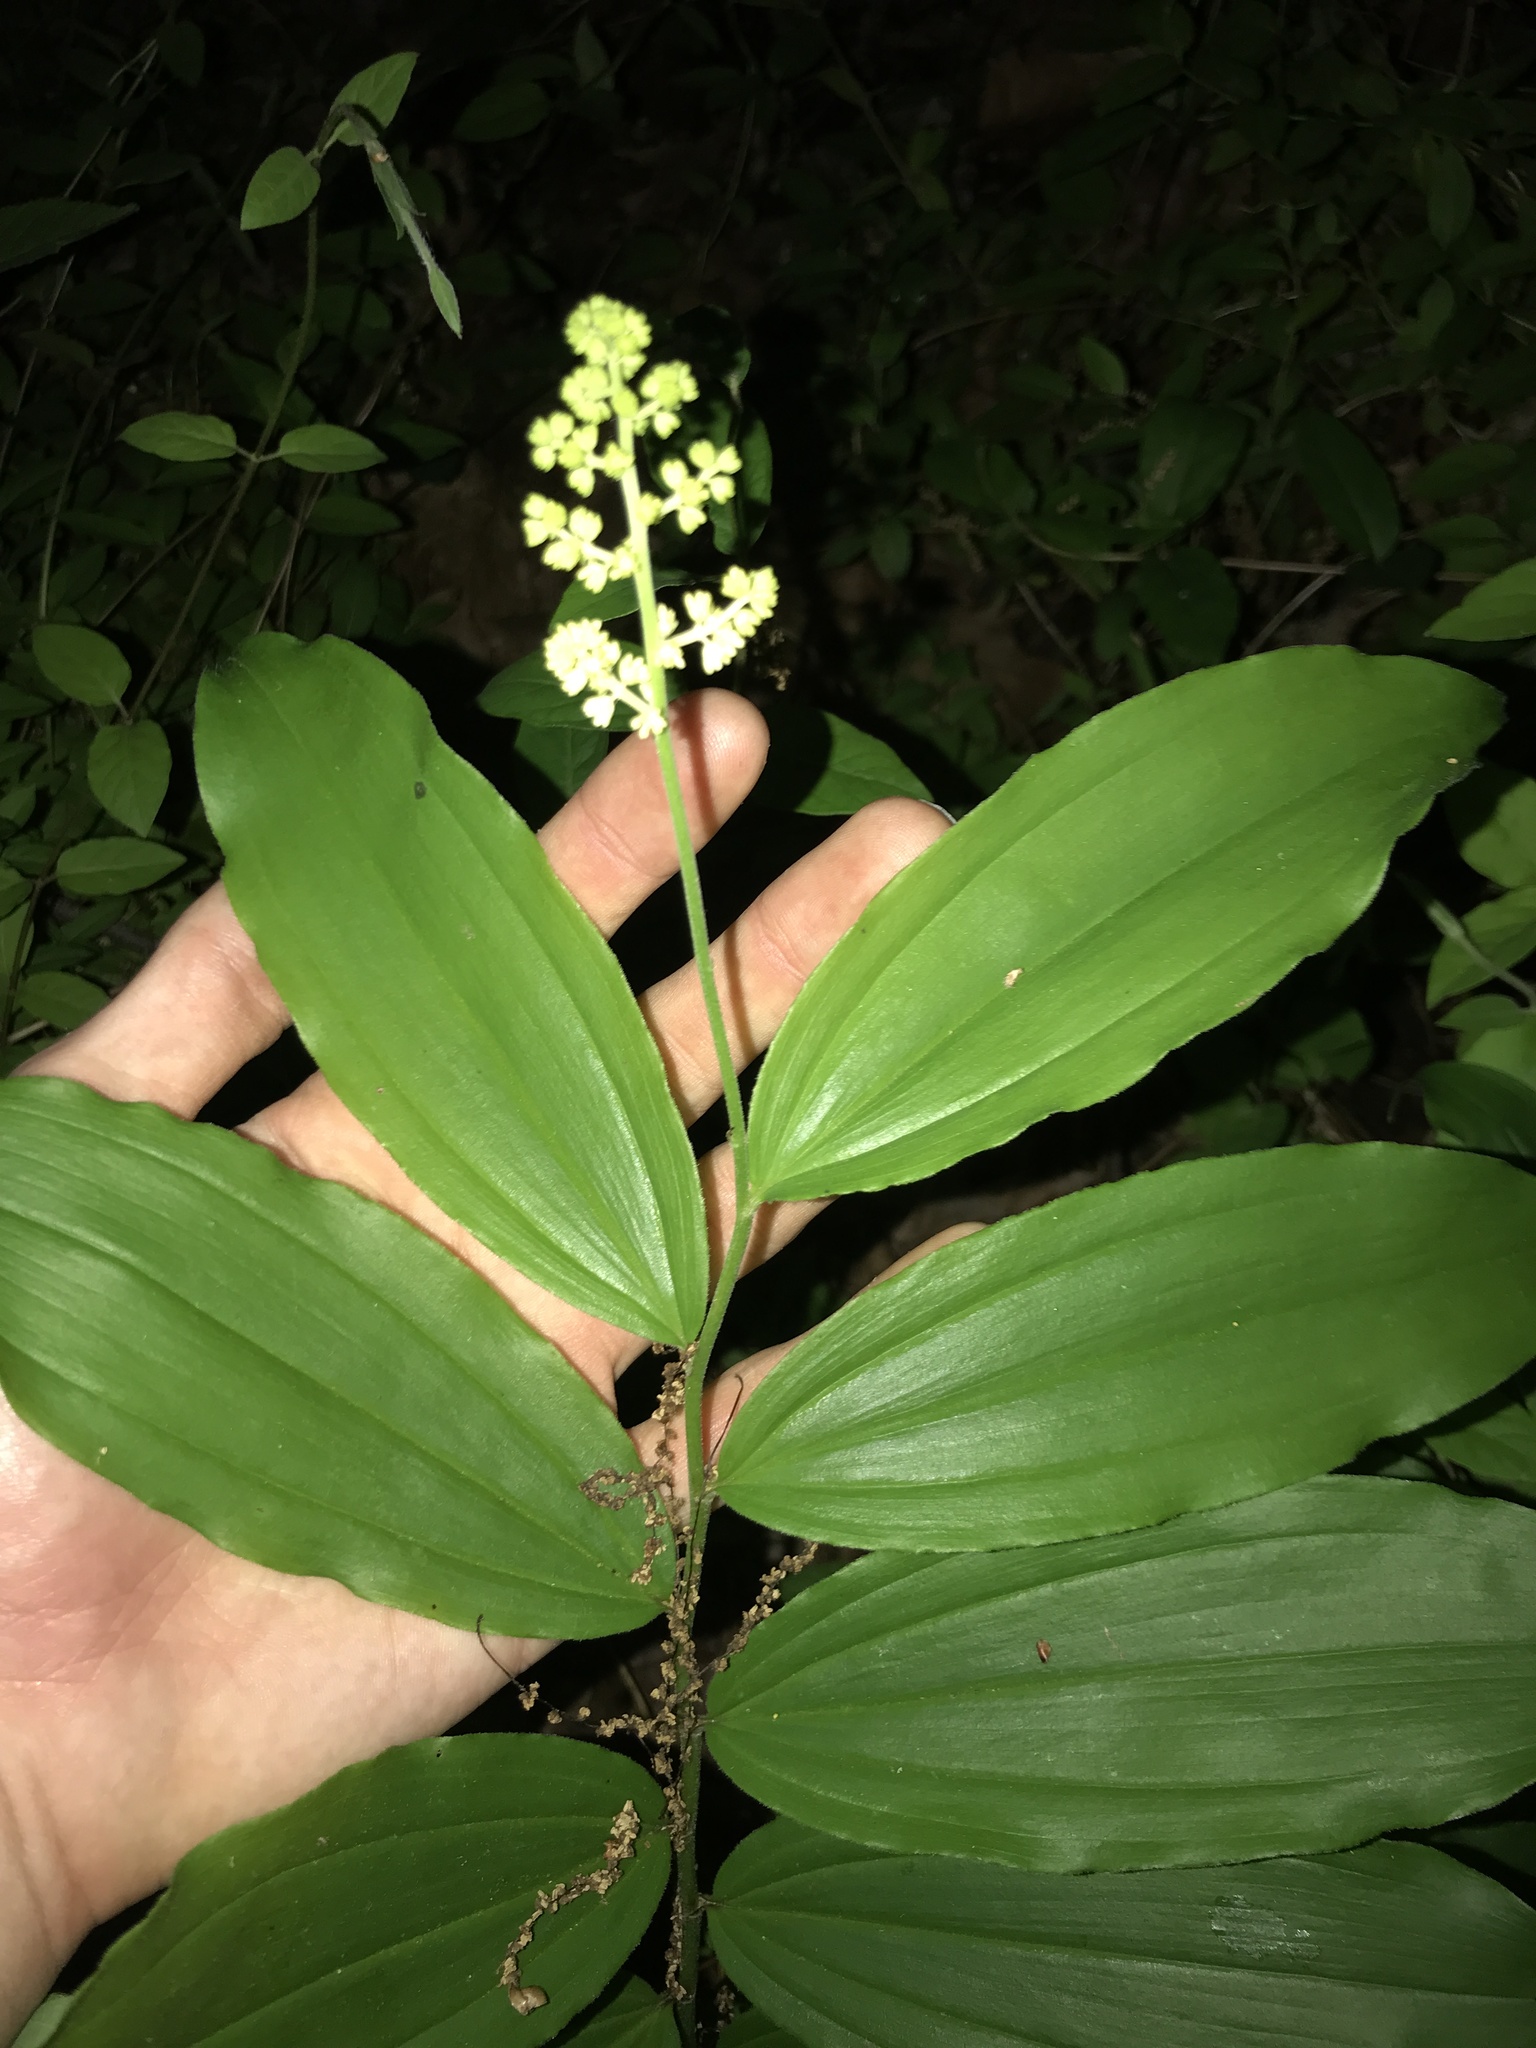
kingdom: Plantae
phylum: Tracheophyta
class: Liliopsida
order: Asparagales
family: Asparagaceae
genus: Maianthemum
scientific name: Maianthemum racemosum
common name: False spikenard
